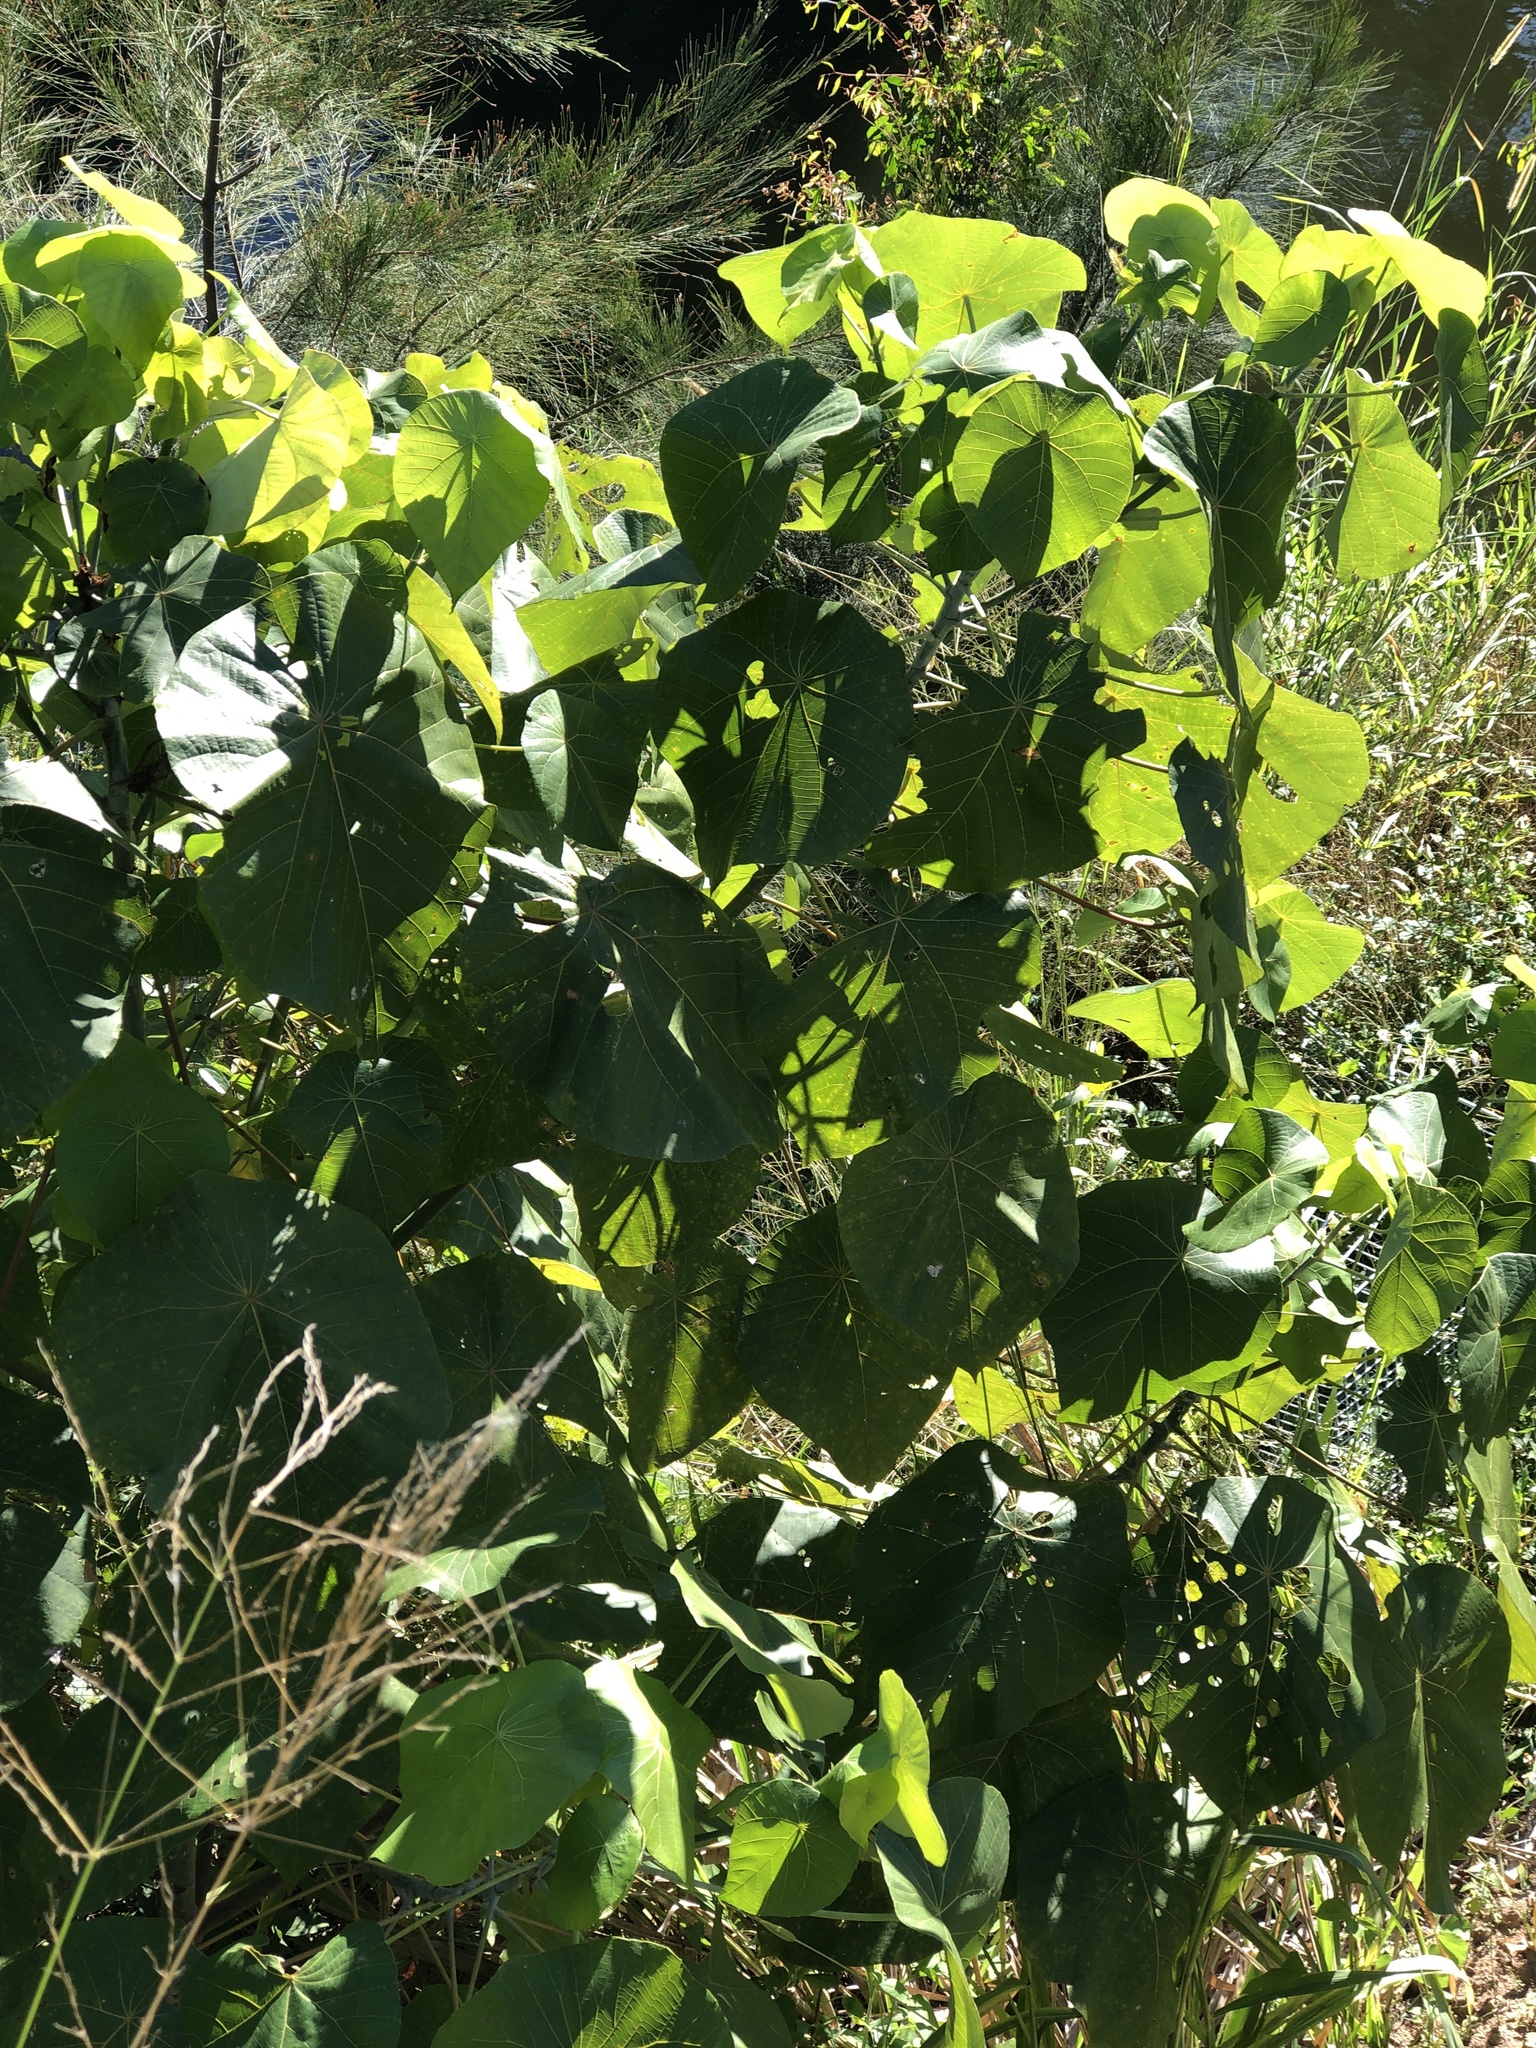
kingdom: Plantae
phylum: Tracheophyta
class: Magnoliopsida
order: Malpighiales
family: Euphorbiaceae
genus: Macaranga
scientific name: Macaranga tanarius
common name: Parasol leaf tree
